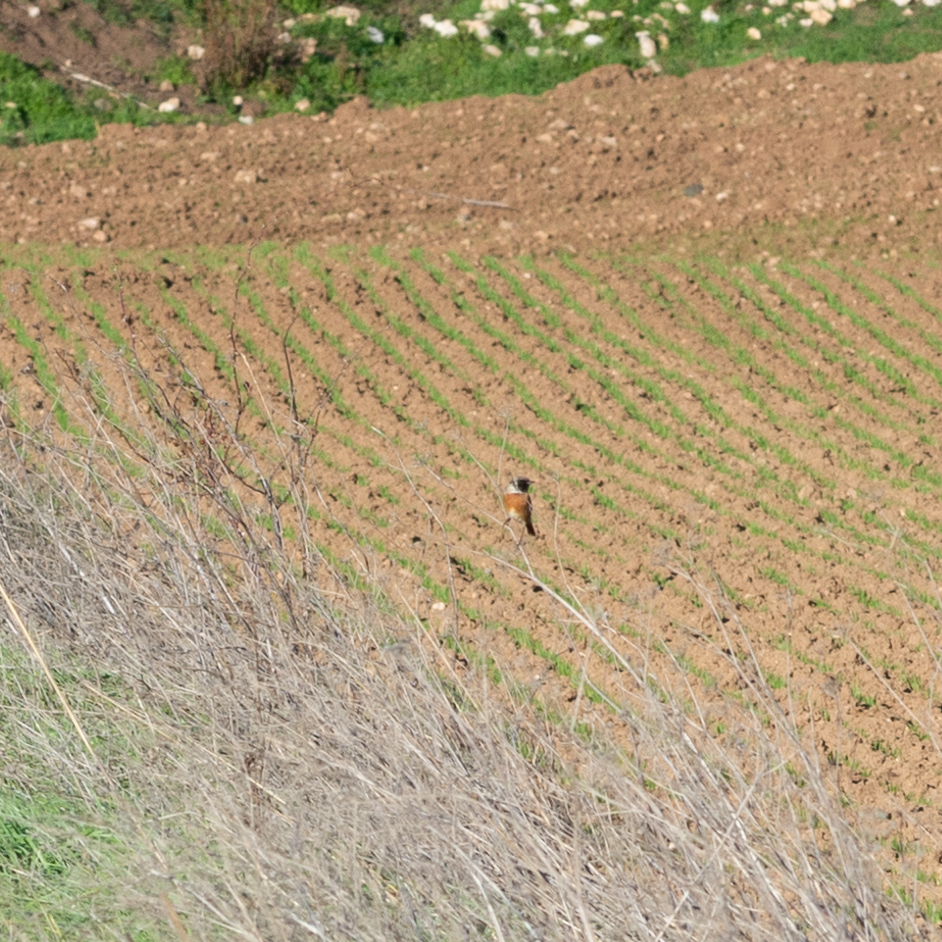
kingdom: Animalia
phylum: Chordata
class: Aves
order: Passeriformes
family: Muscicapidae
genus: Saxicola
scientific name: Saxicola rubicola
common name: European stonechat
